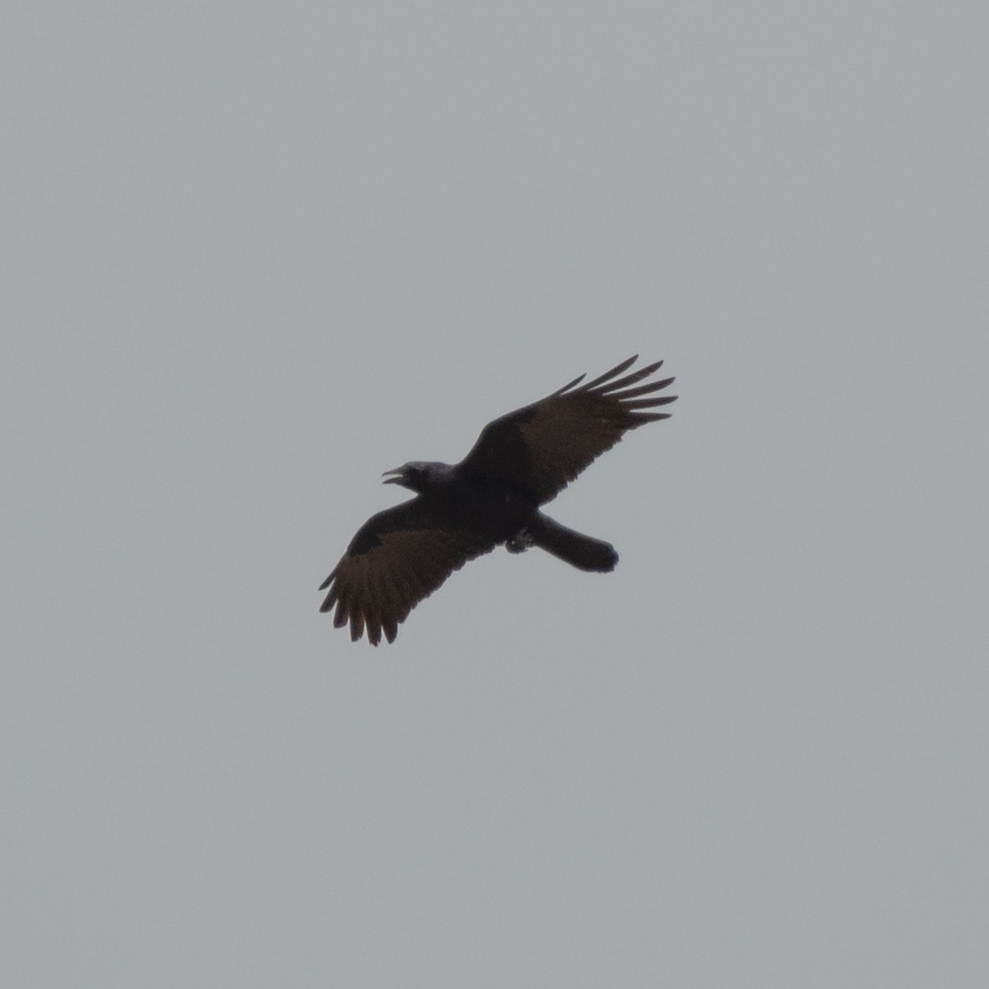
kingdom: Animalia
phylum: Chordata
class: Aves
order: Passeriformes
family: Corvidae
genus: Corvus
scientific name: Corvus corone
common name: Carrion crow
